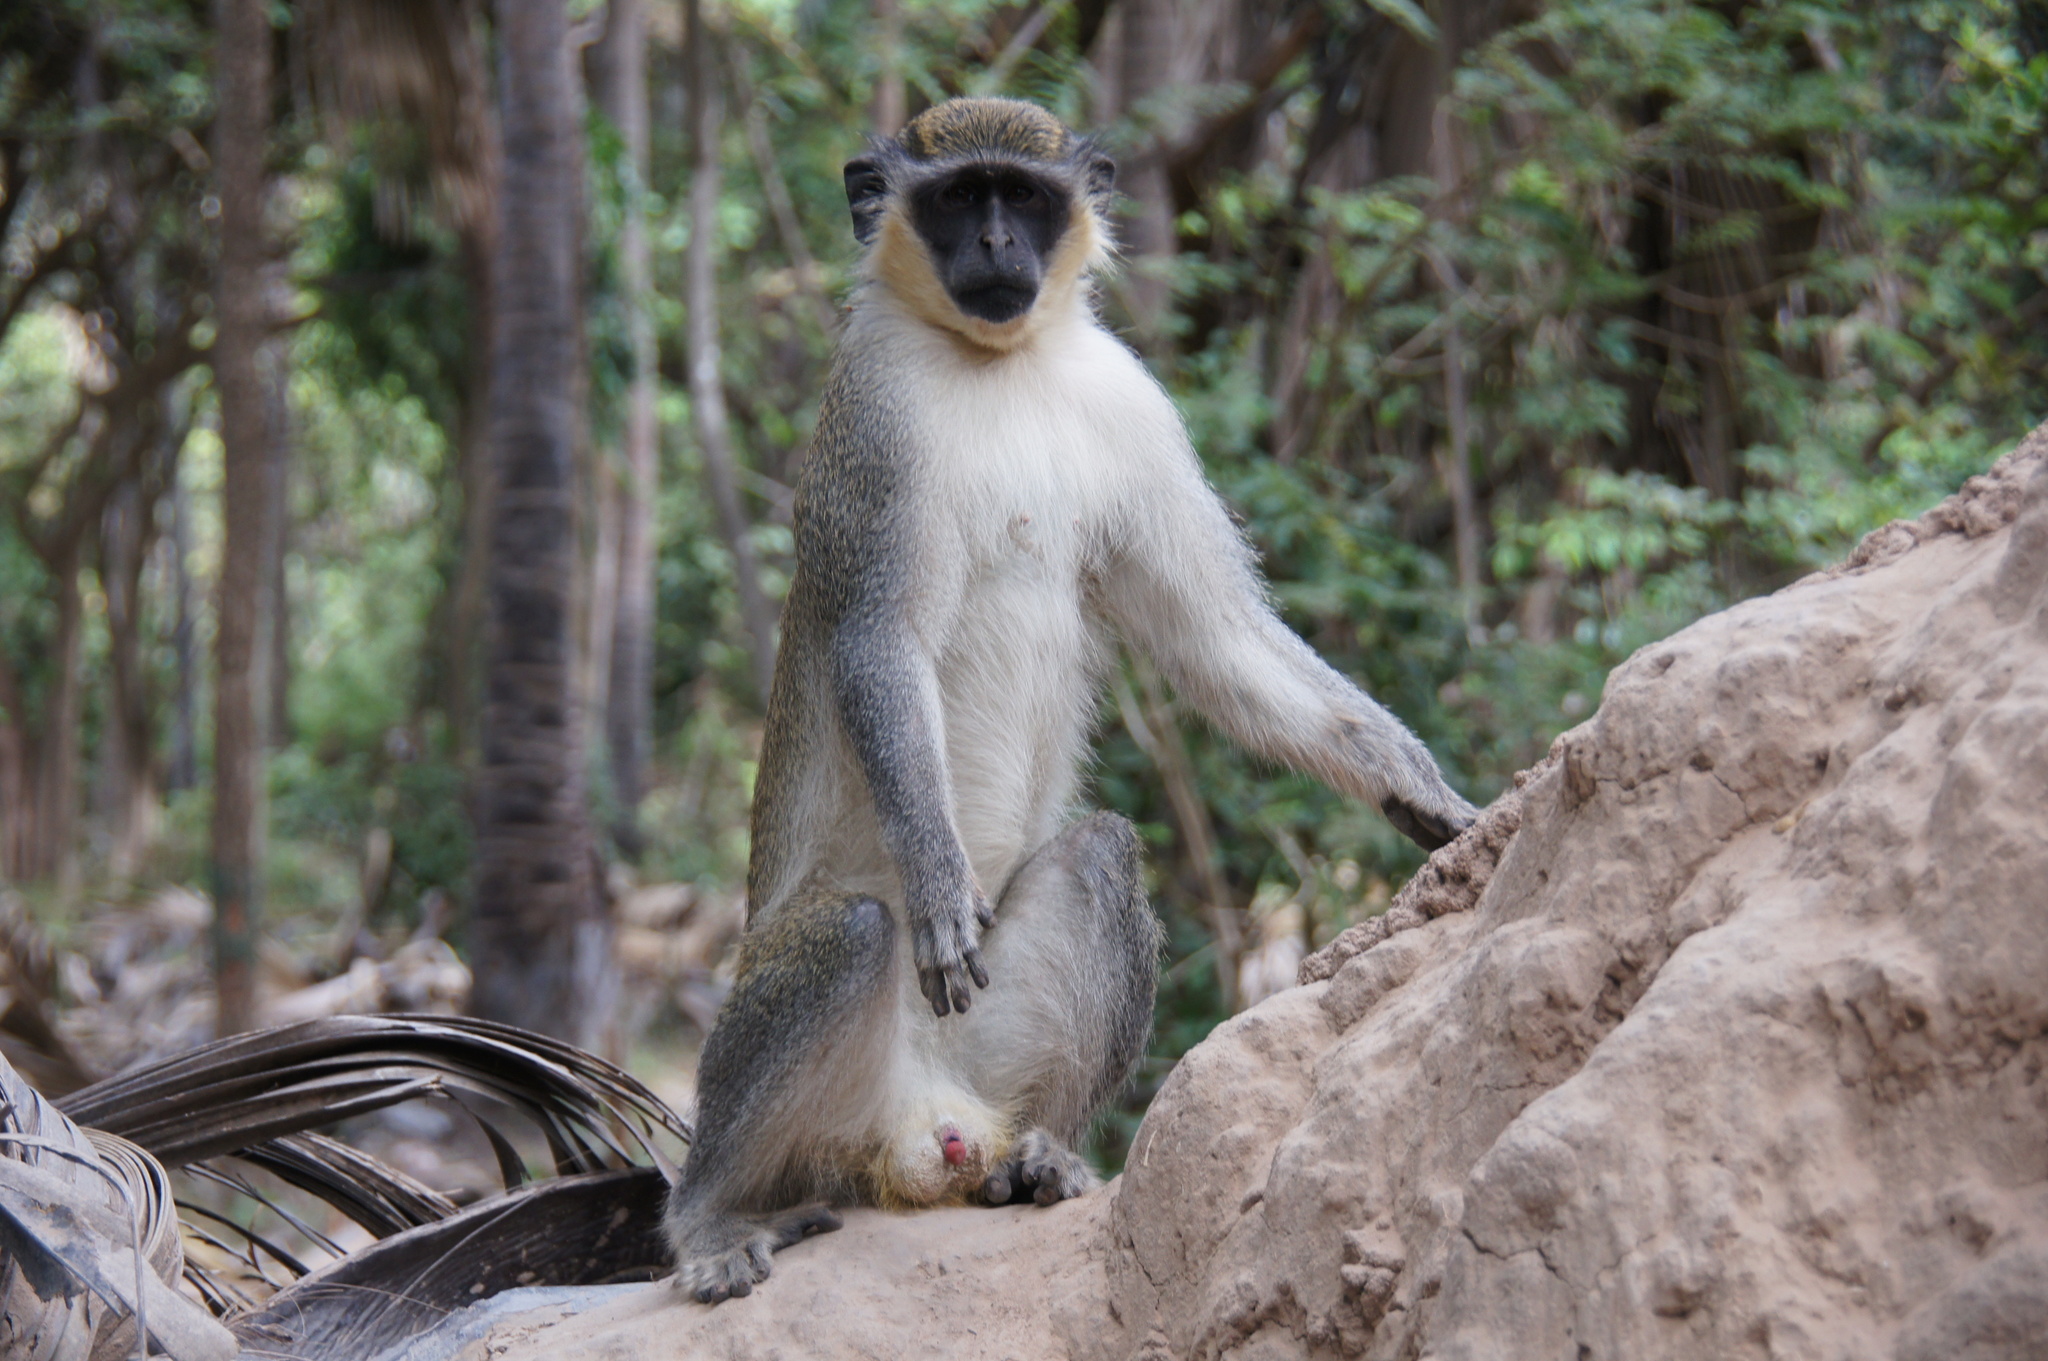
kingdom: Animalia
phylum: Chordata
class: Mammalia
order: Primates
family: Cercopithecidae
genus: Chlorocebus
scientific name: Chlorocebus sabaeus
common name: Green monkey
